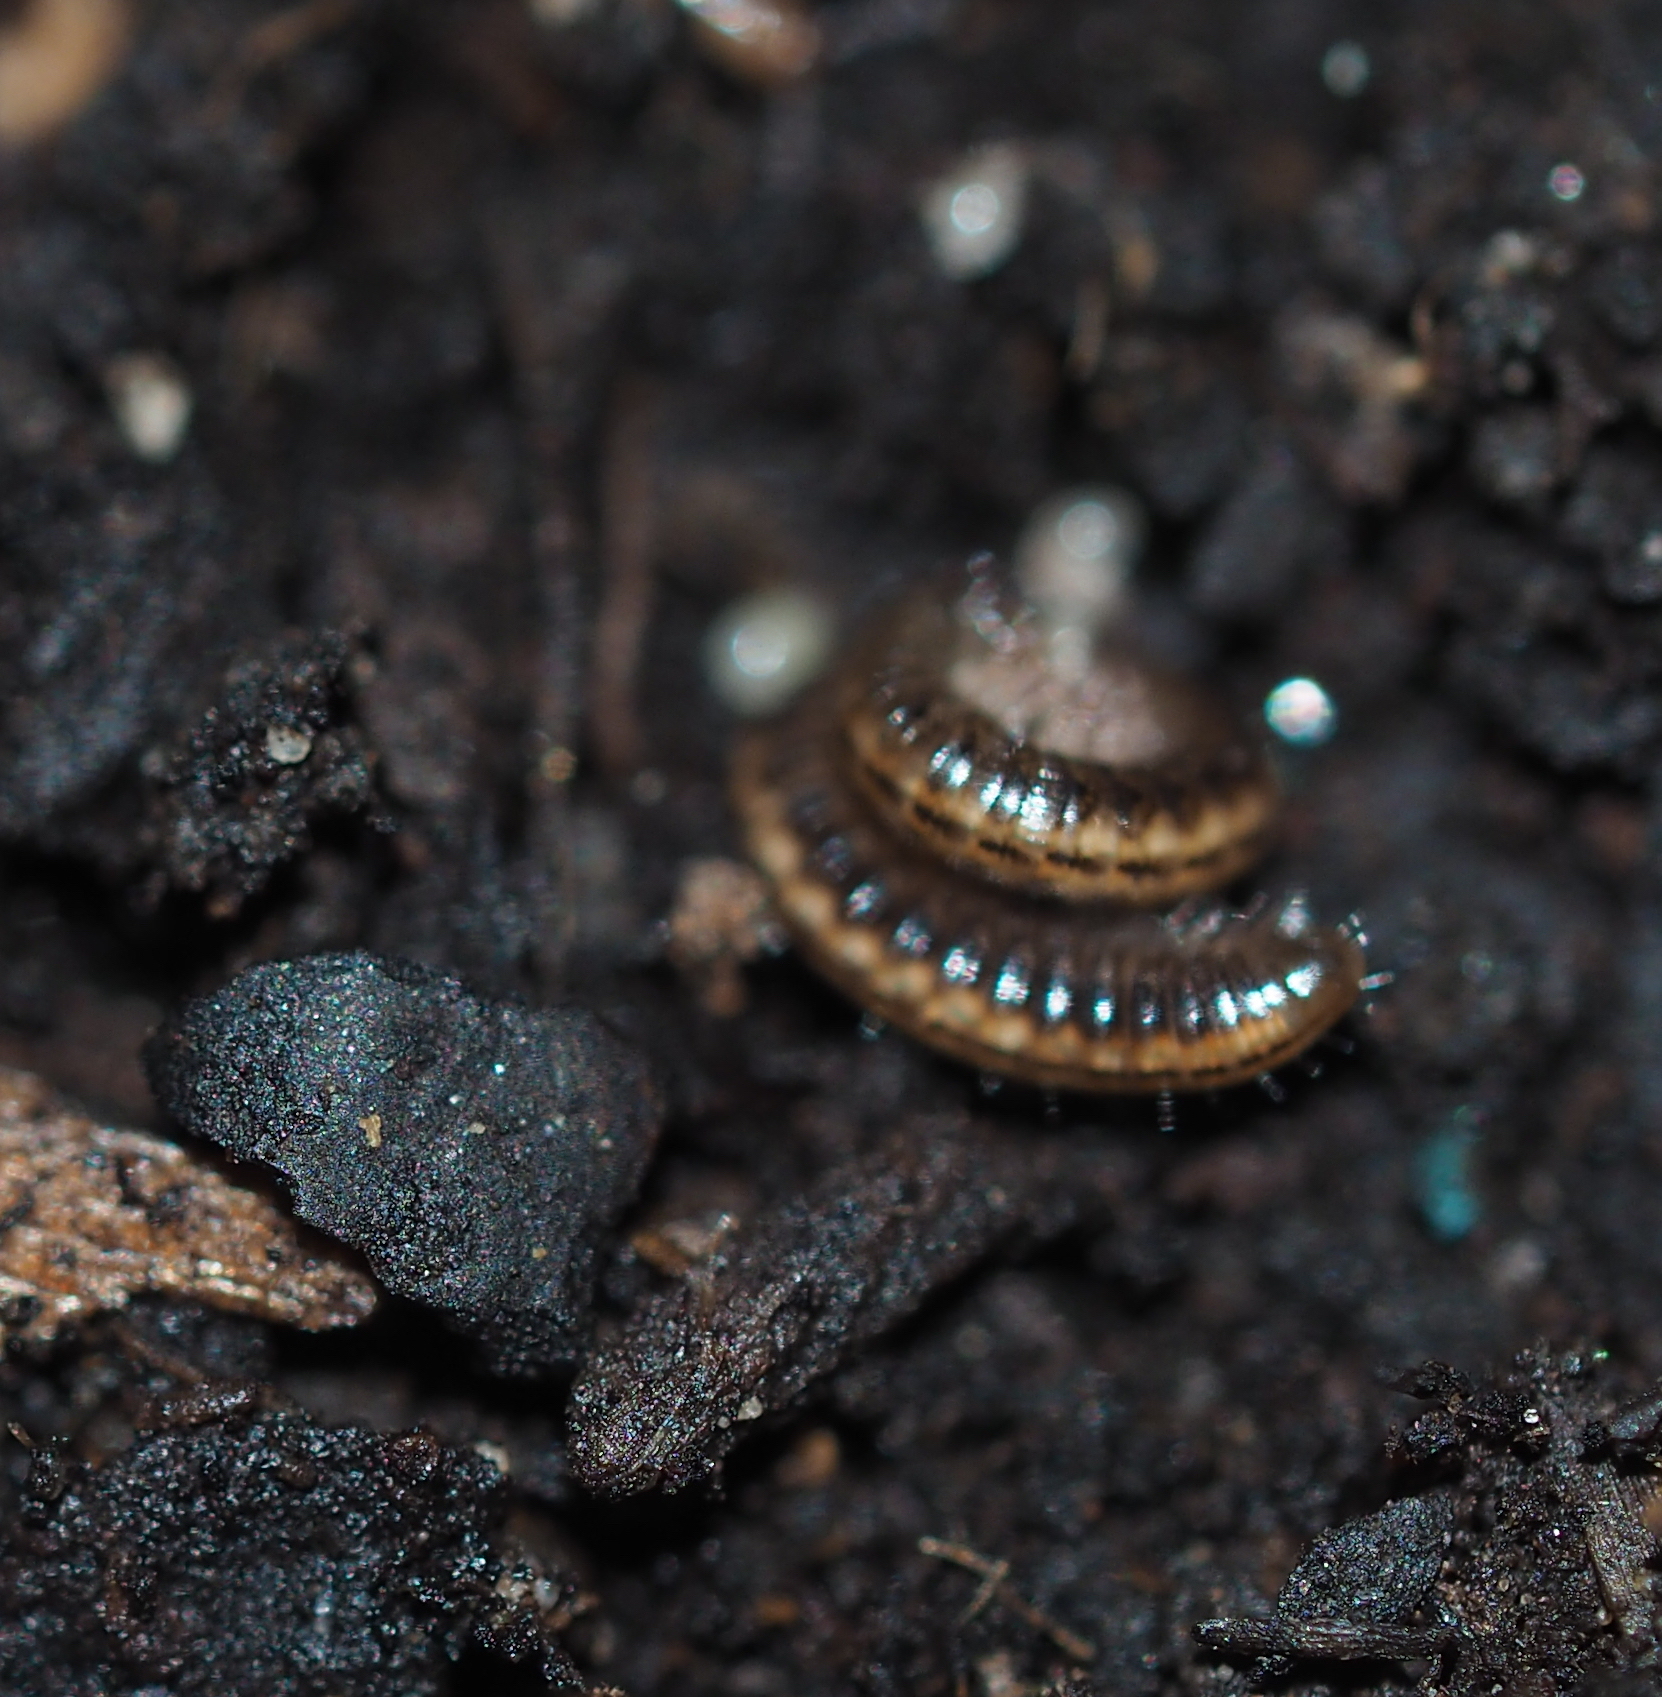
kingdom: Animalia
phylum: Arthropoda
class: Diplopoda
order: Julida
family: Julidae
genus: Ommatoiulus
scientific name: Ommatoiulus sabulosus
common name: Striped millipede
